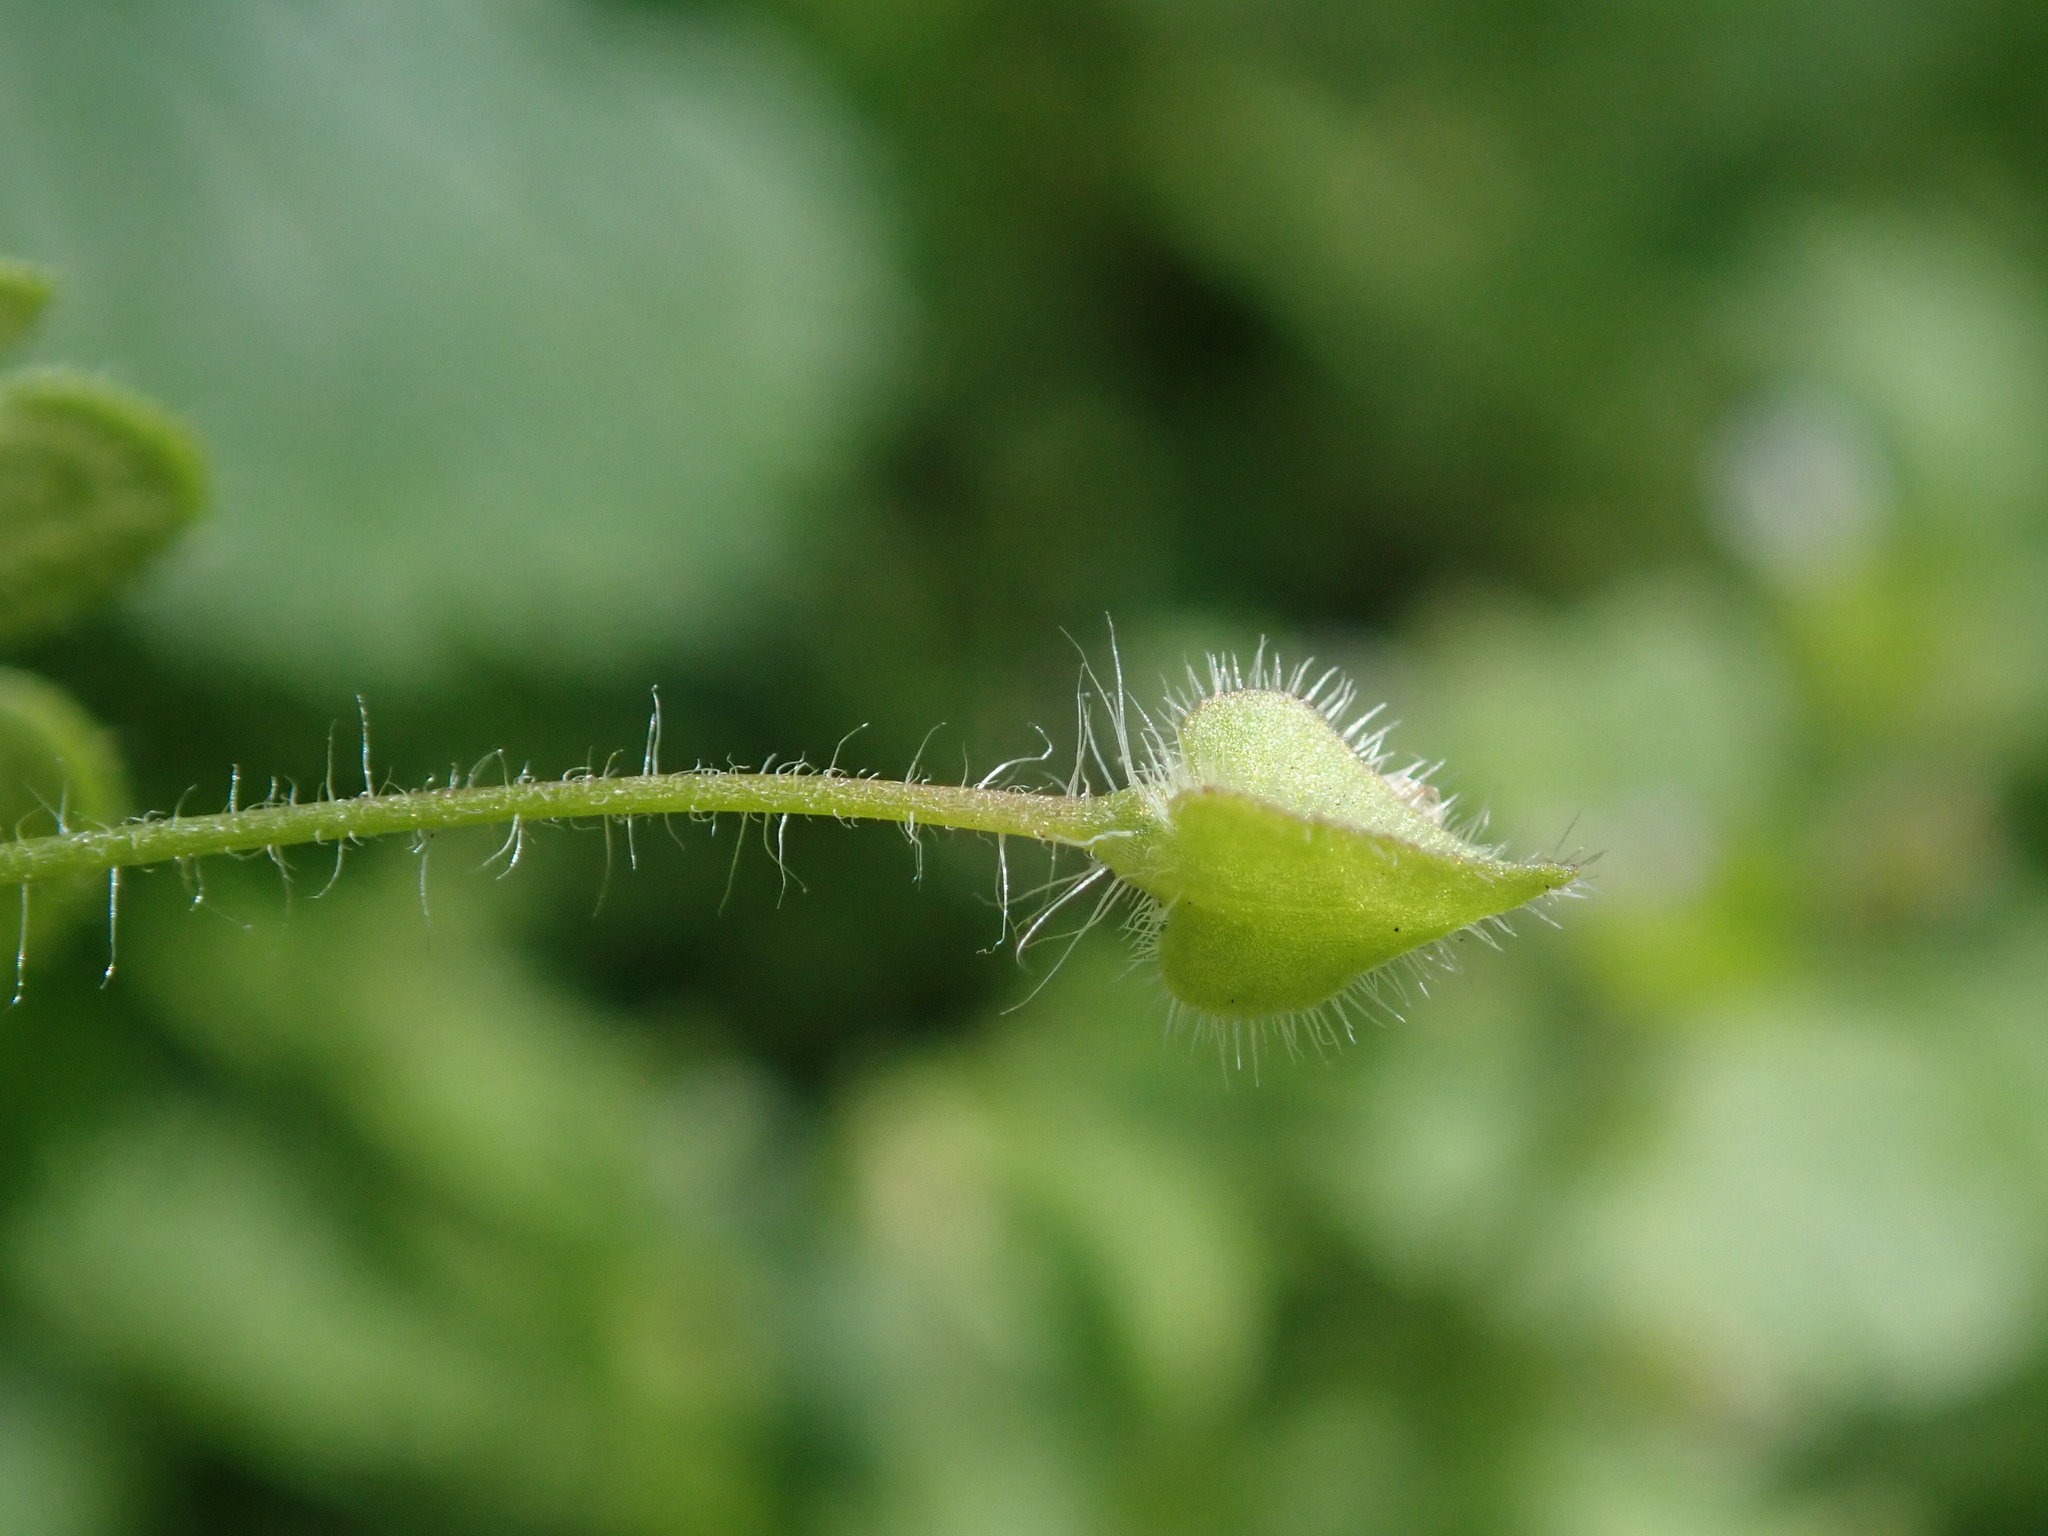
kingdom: Plantae
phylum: Tracheophyta
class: Magnoliopsida
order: Lamiales
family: Plantaginaceae
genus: Veronica
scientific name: Veronica sublobata
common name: False ivy-leaved speedwell
